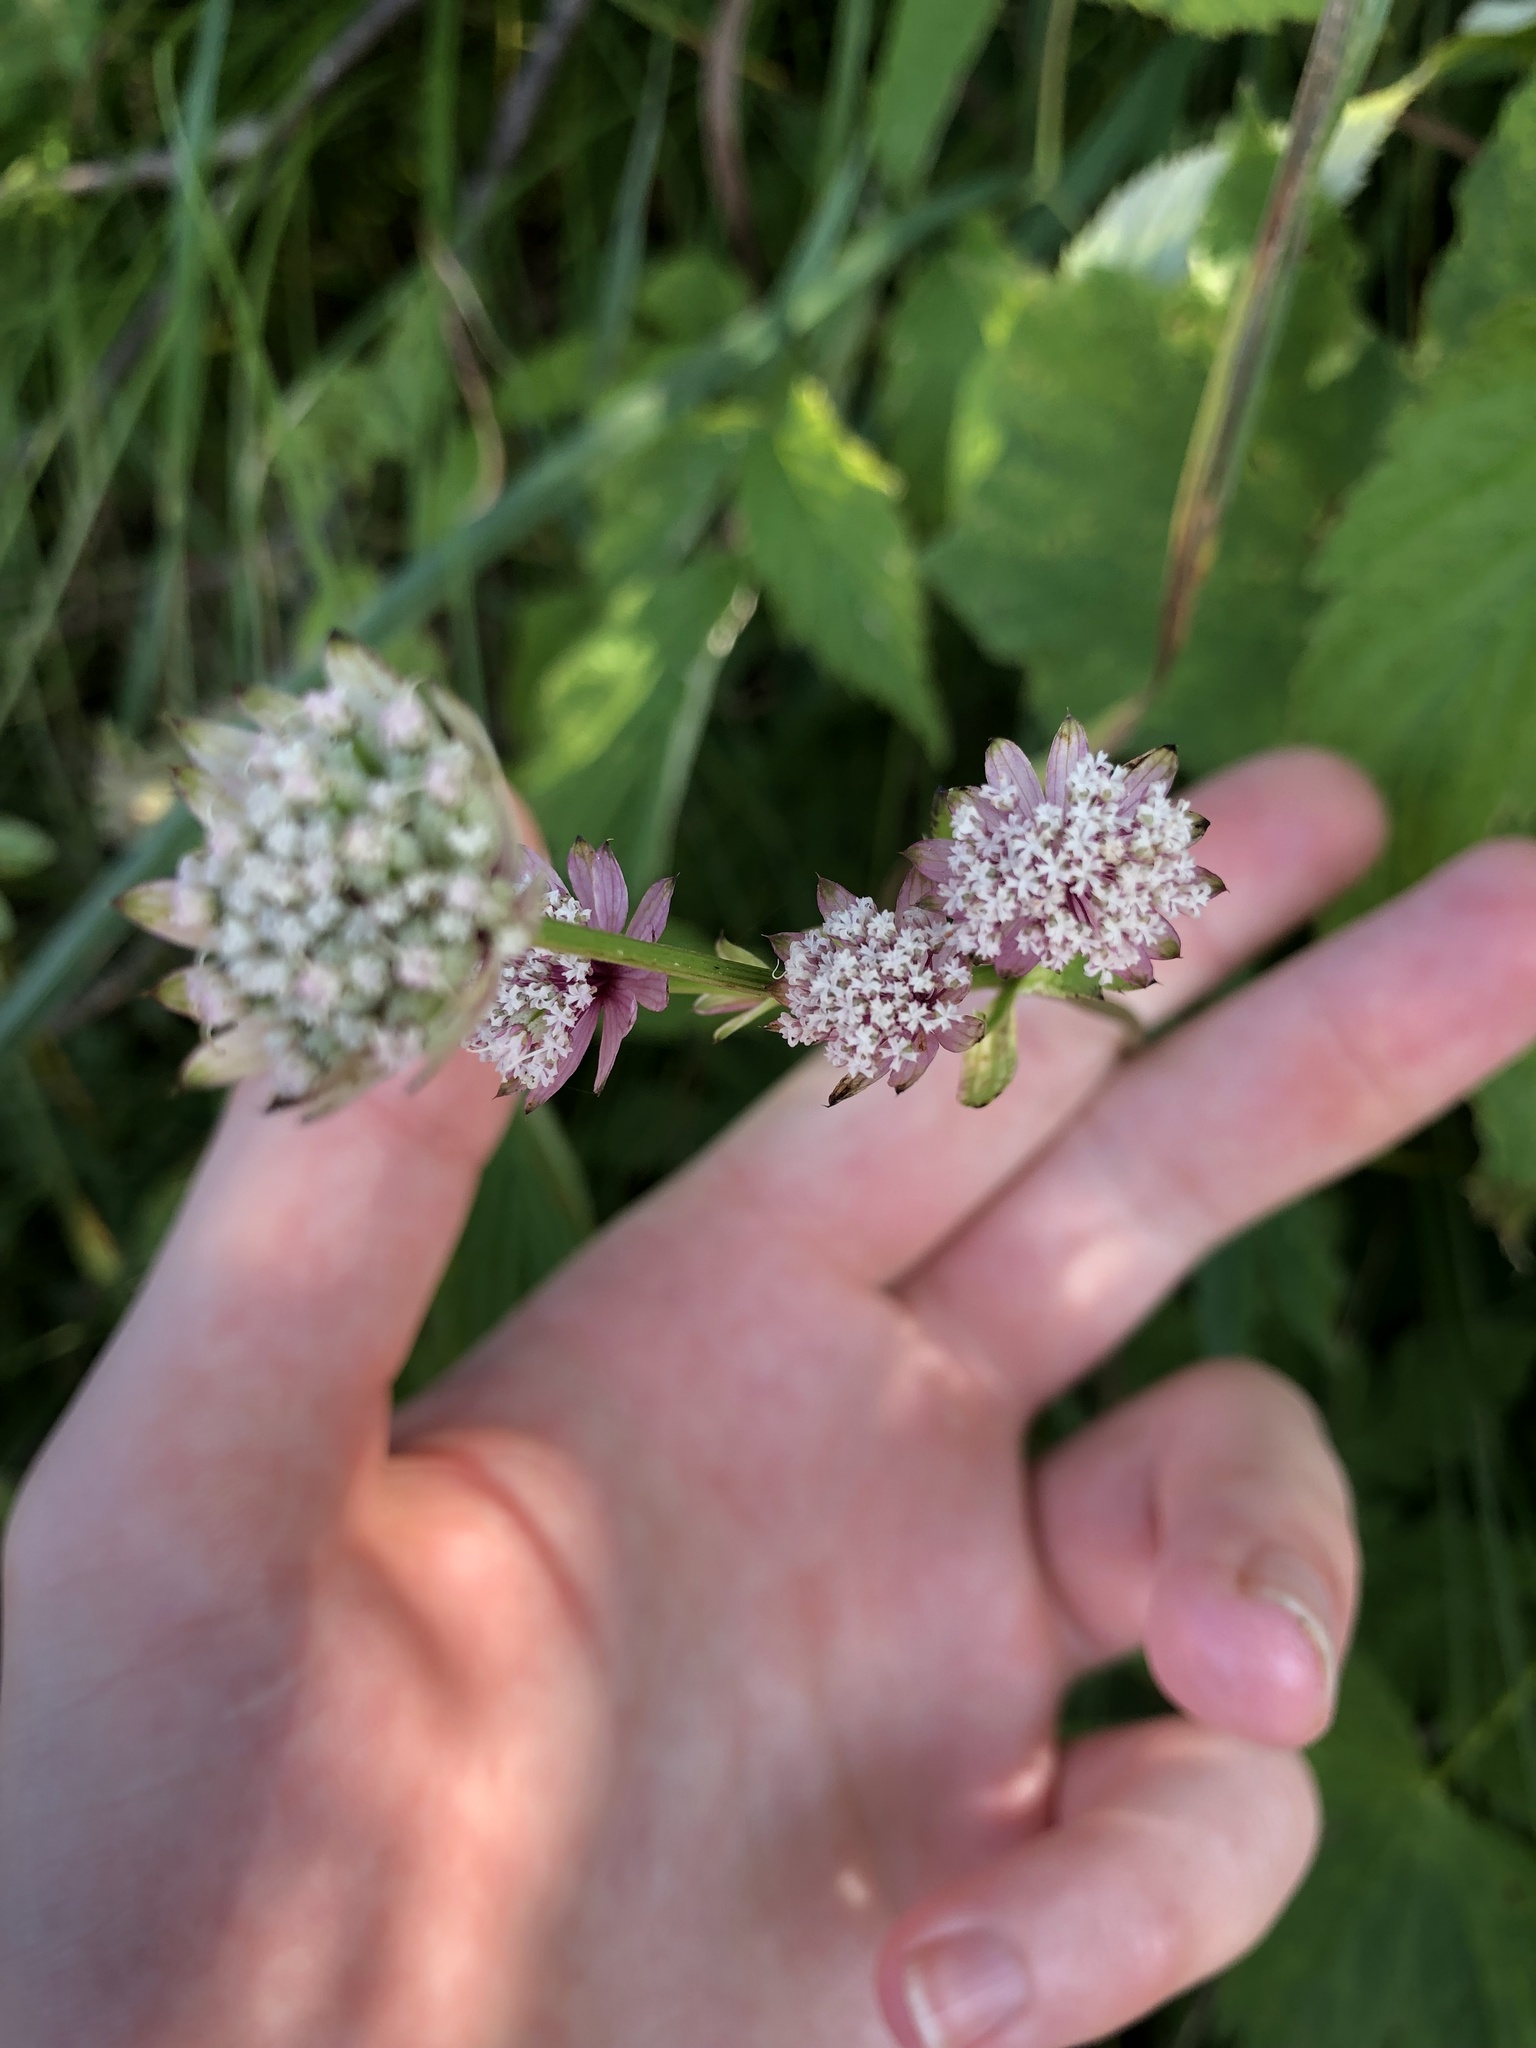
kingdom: Plantae
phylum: Tracheophyta
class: Magnoliopsida
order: Apiales
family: Apiaceae
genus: Astrantia
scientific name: Astrantia major
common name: Greater masterwort
